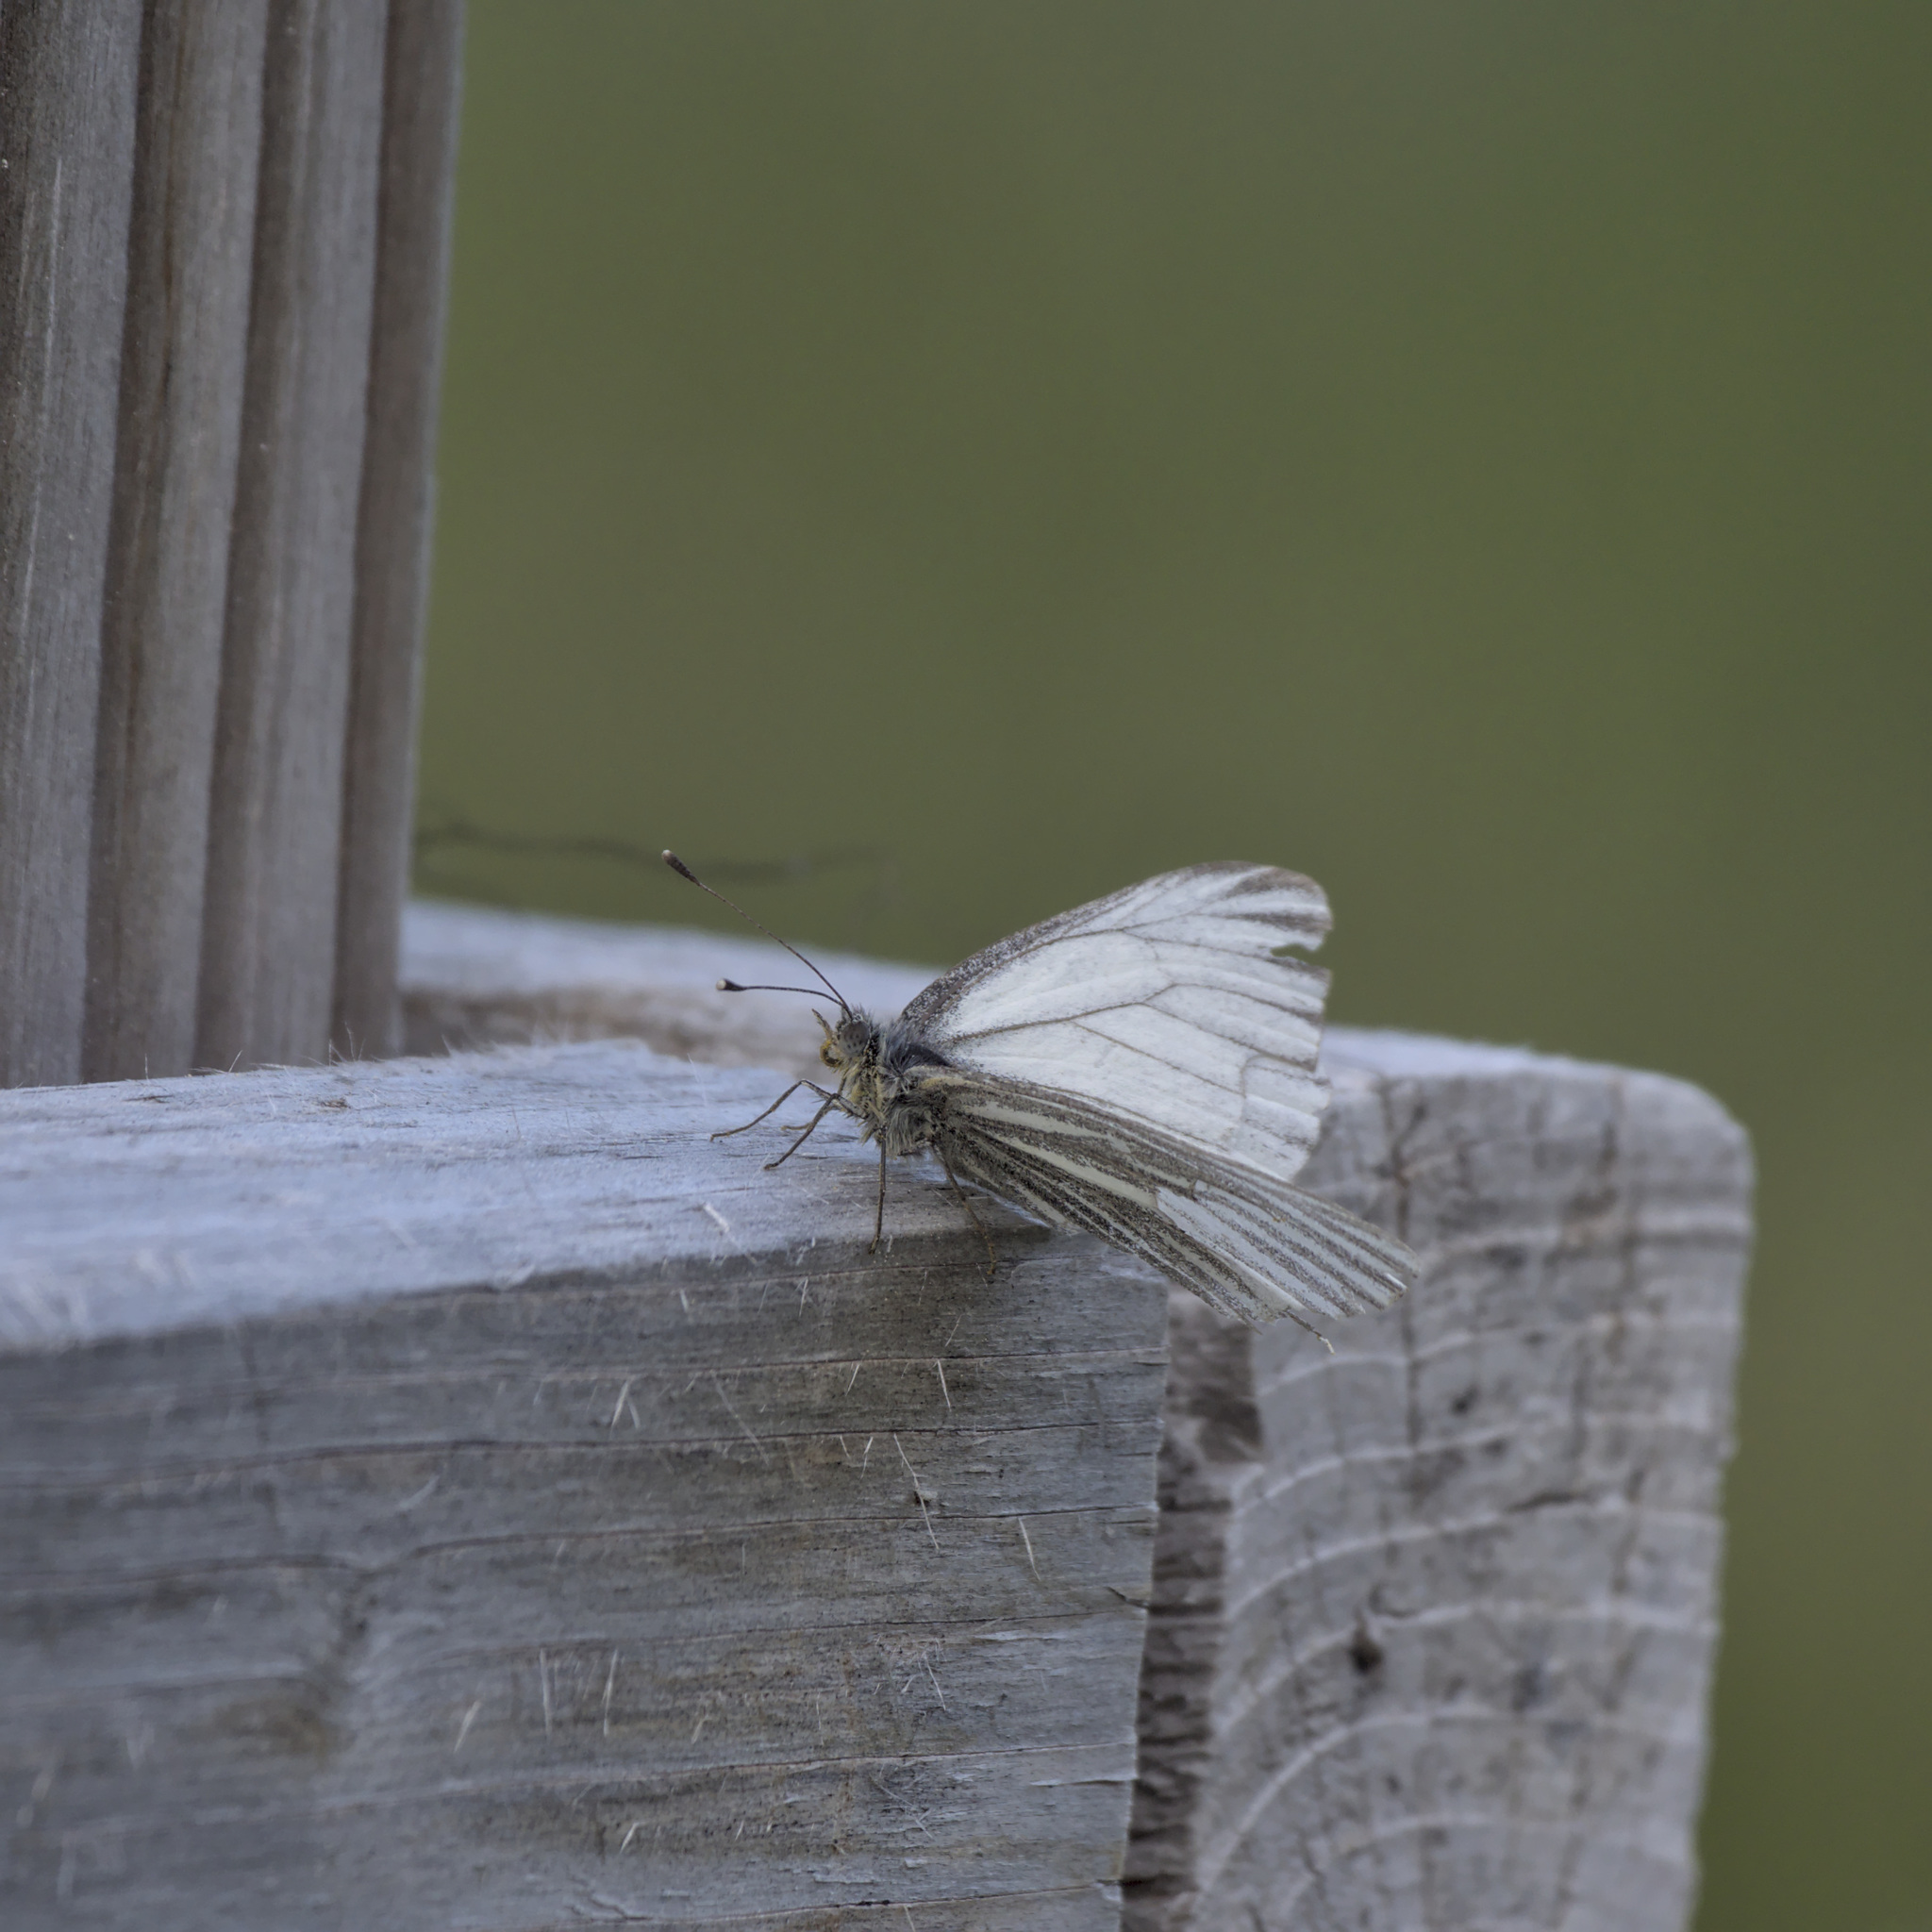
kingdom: Animalia
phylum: Arthropoda
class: Insecta
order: Lepidoptera
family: Pieridae
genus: Pieris
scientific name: Pieris marginalis
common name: Margined white
